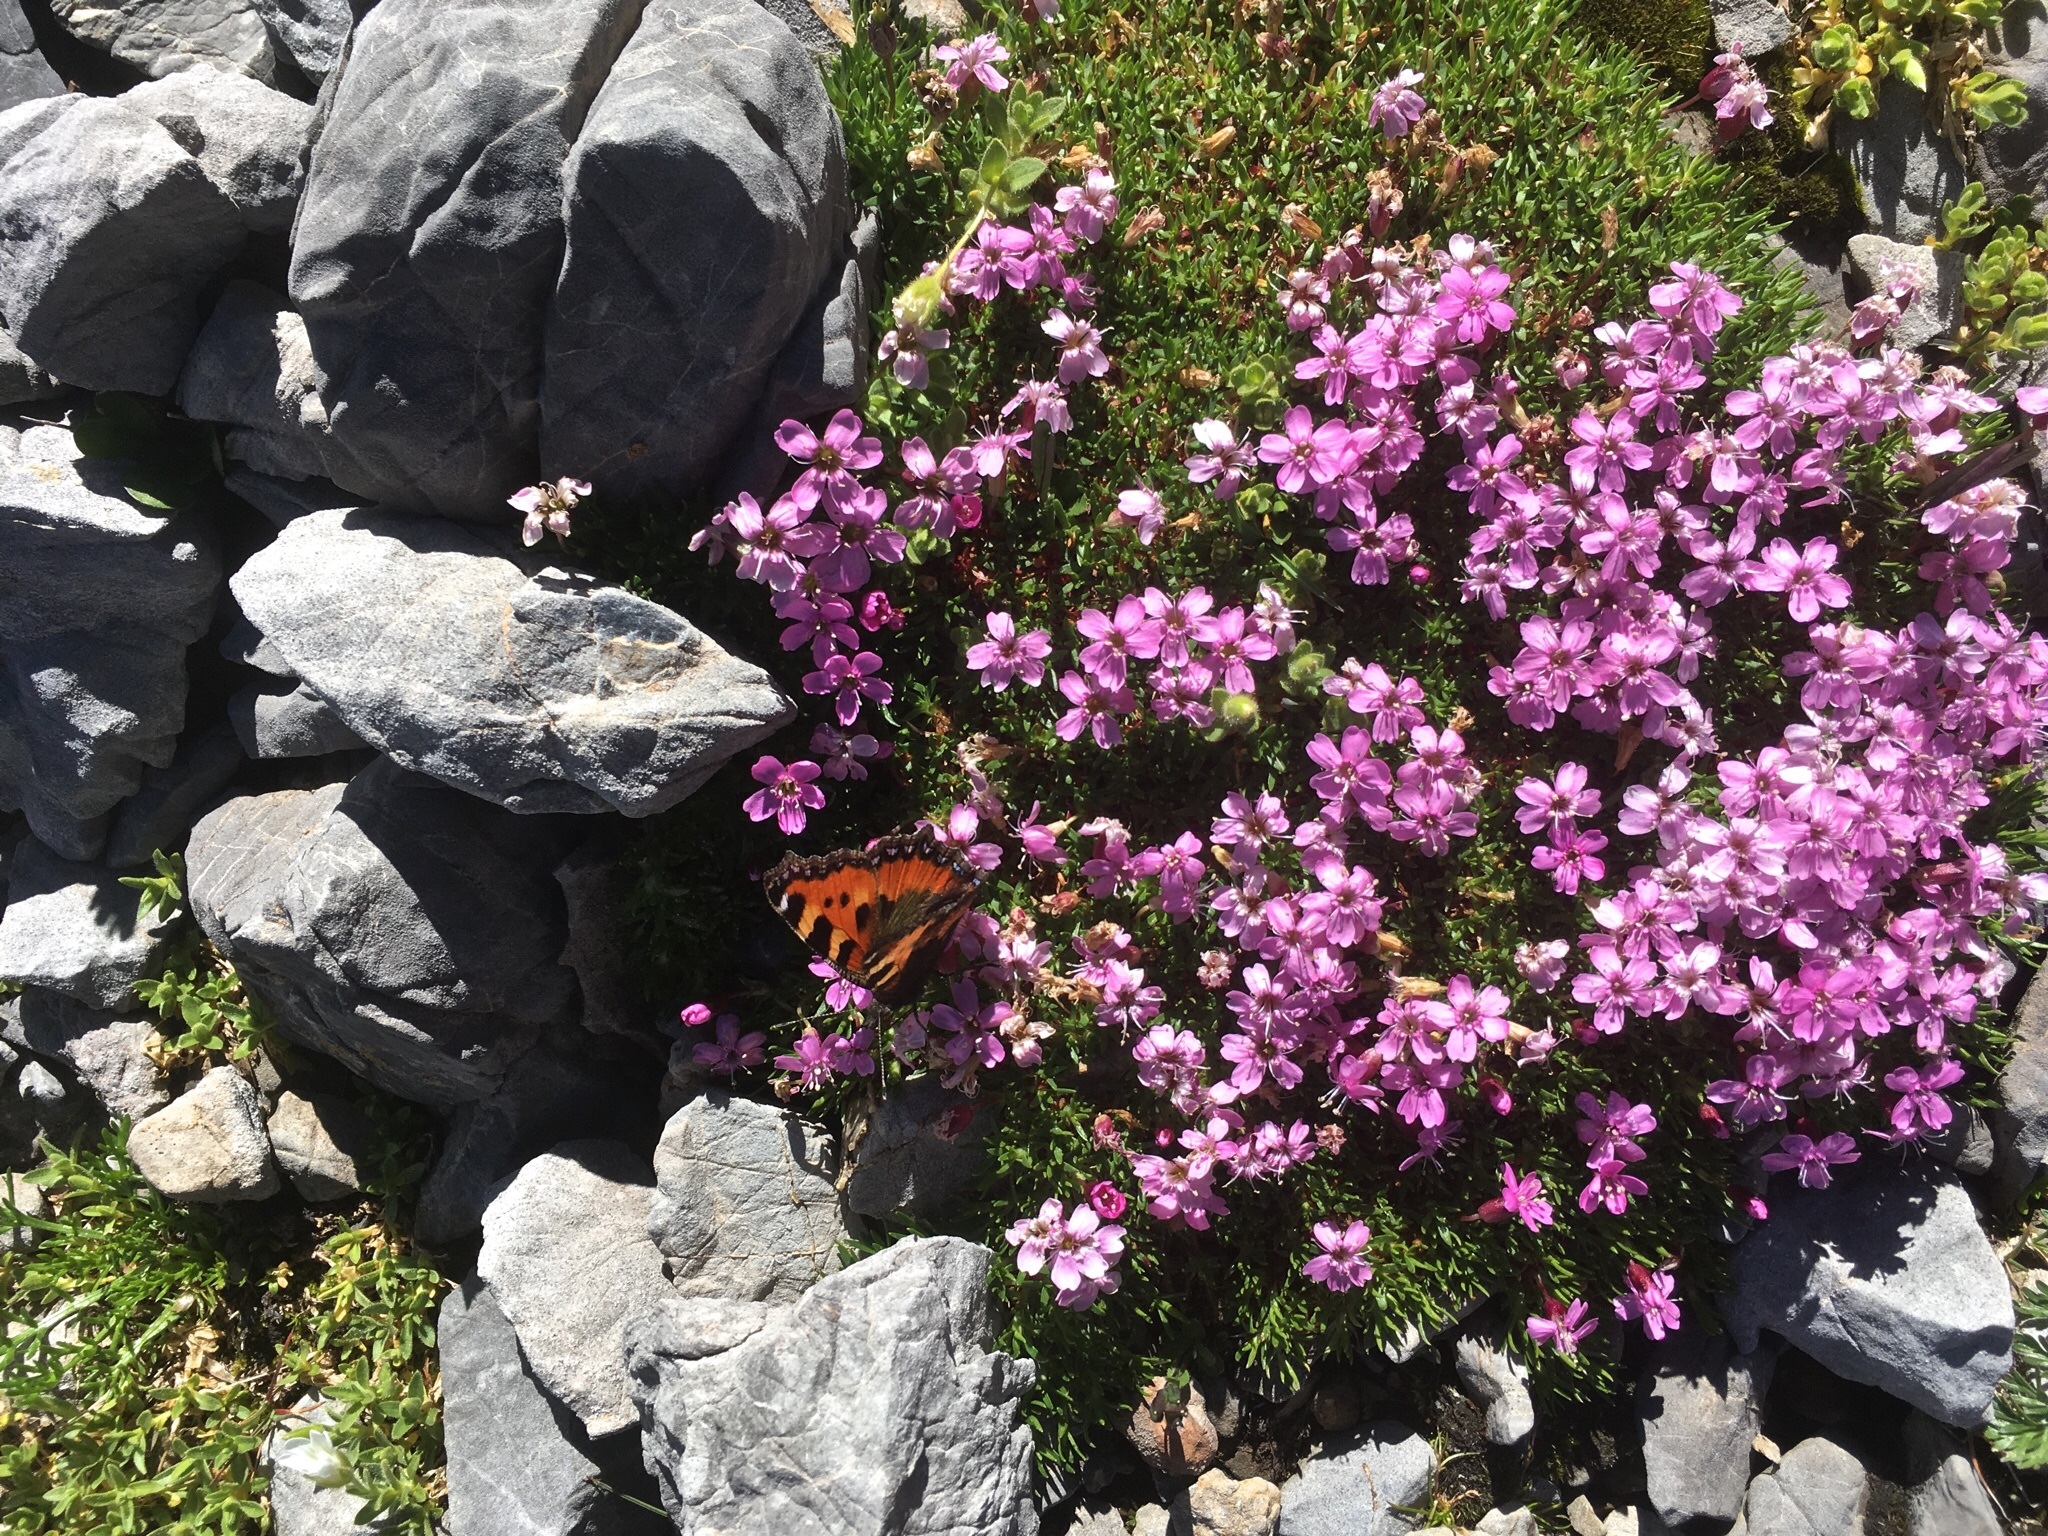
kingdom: Animalia
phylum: Arthropoda
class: Insecta
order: Lepidoptera
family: Nymphalidae
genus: Aglais
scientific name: Aglais urticae
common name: Small tortoiseshell
